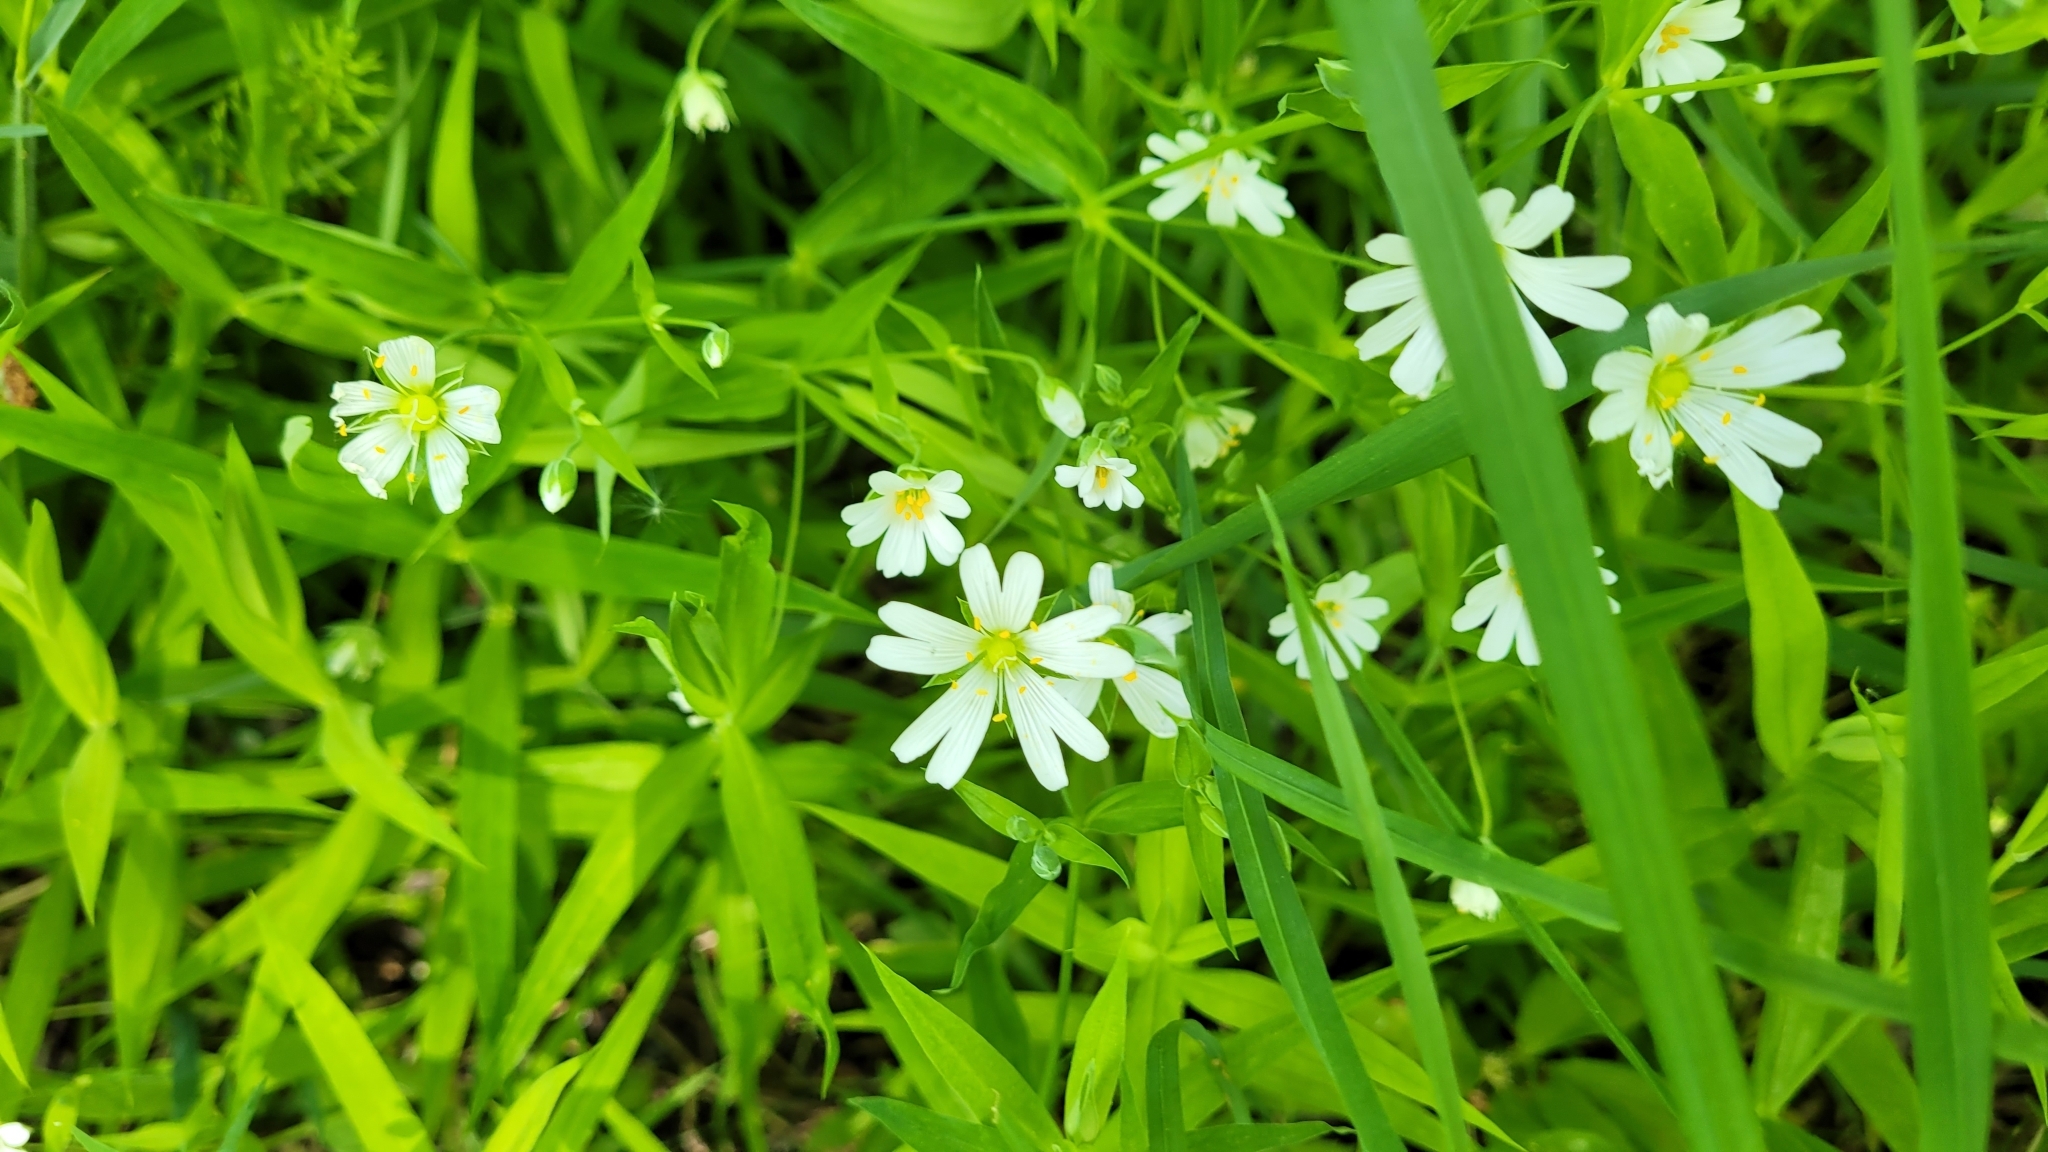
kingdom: Plantae
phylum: Tracheophyta
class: Magnoliopsida
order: Caryophyllales
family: Caryophyllaceae
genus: Rabelera
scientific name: Rabelera holostea
